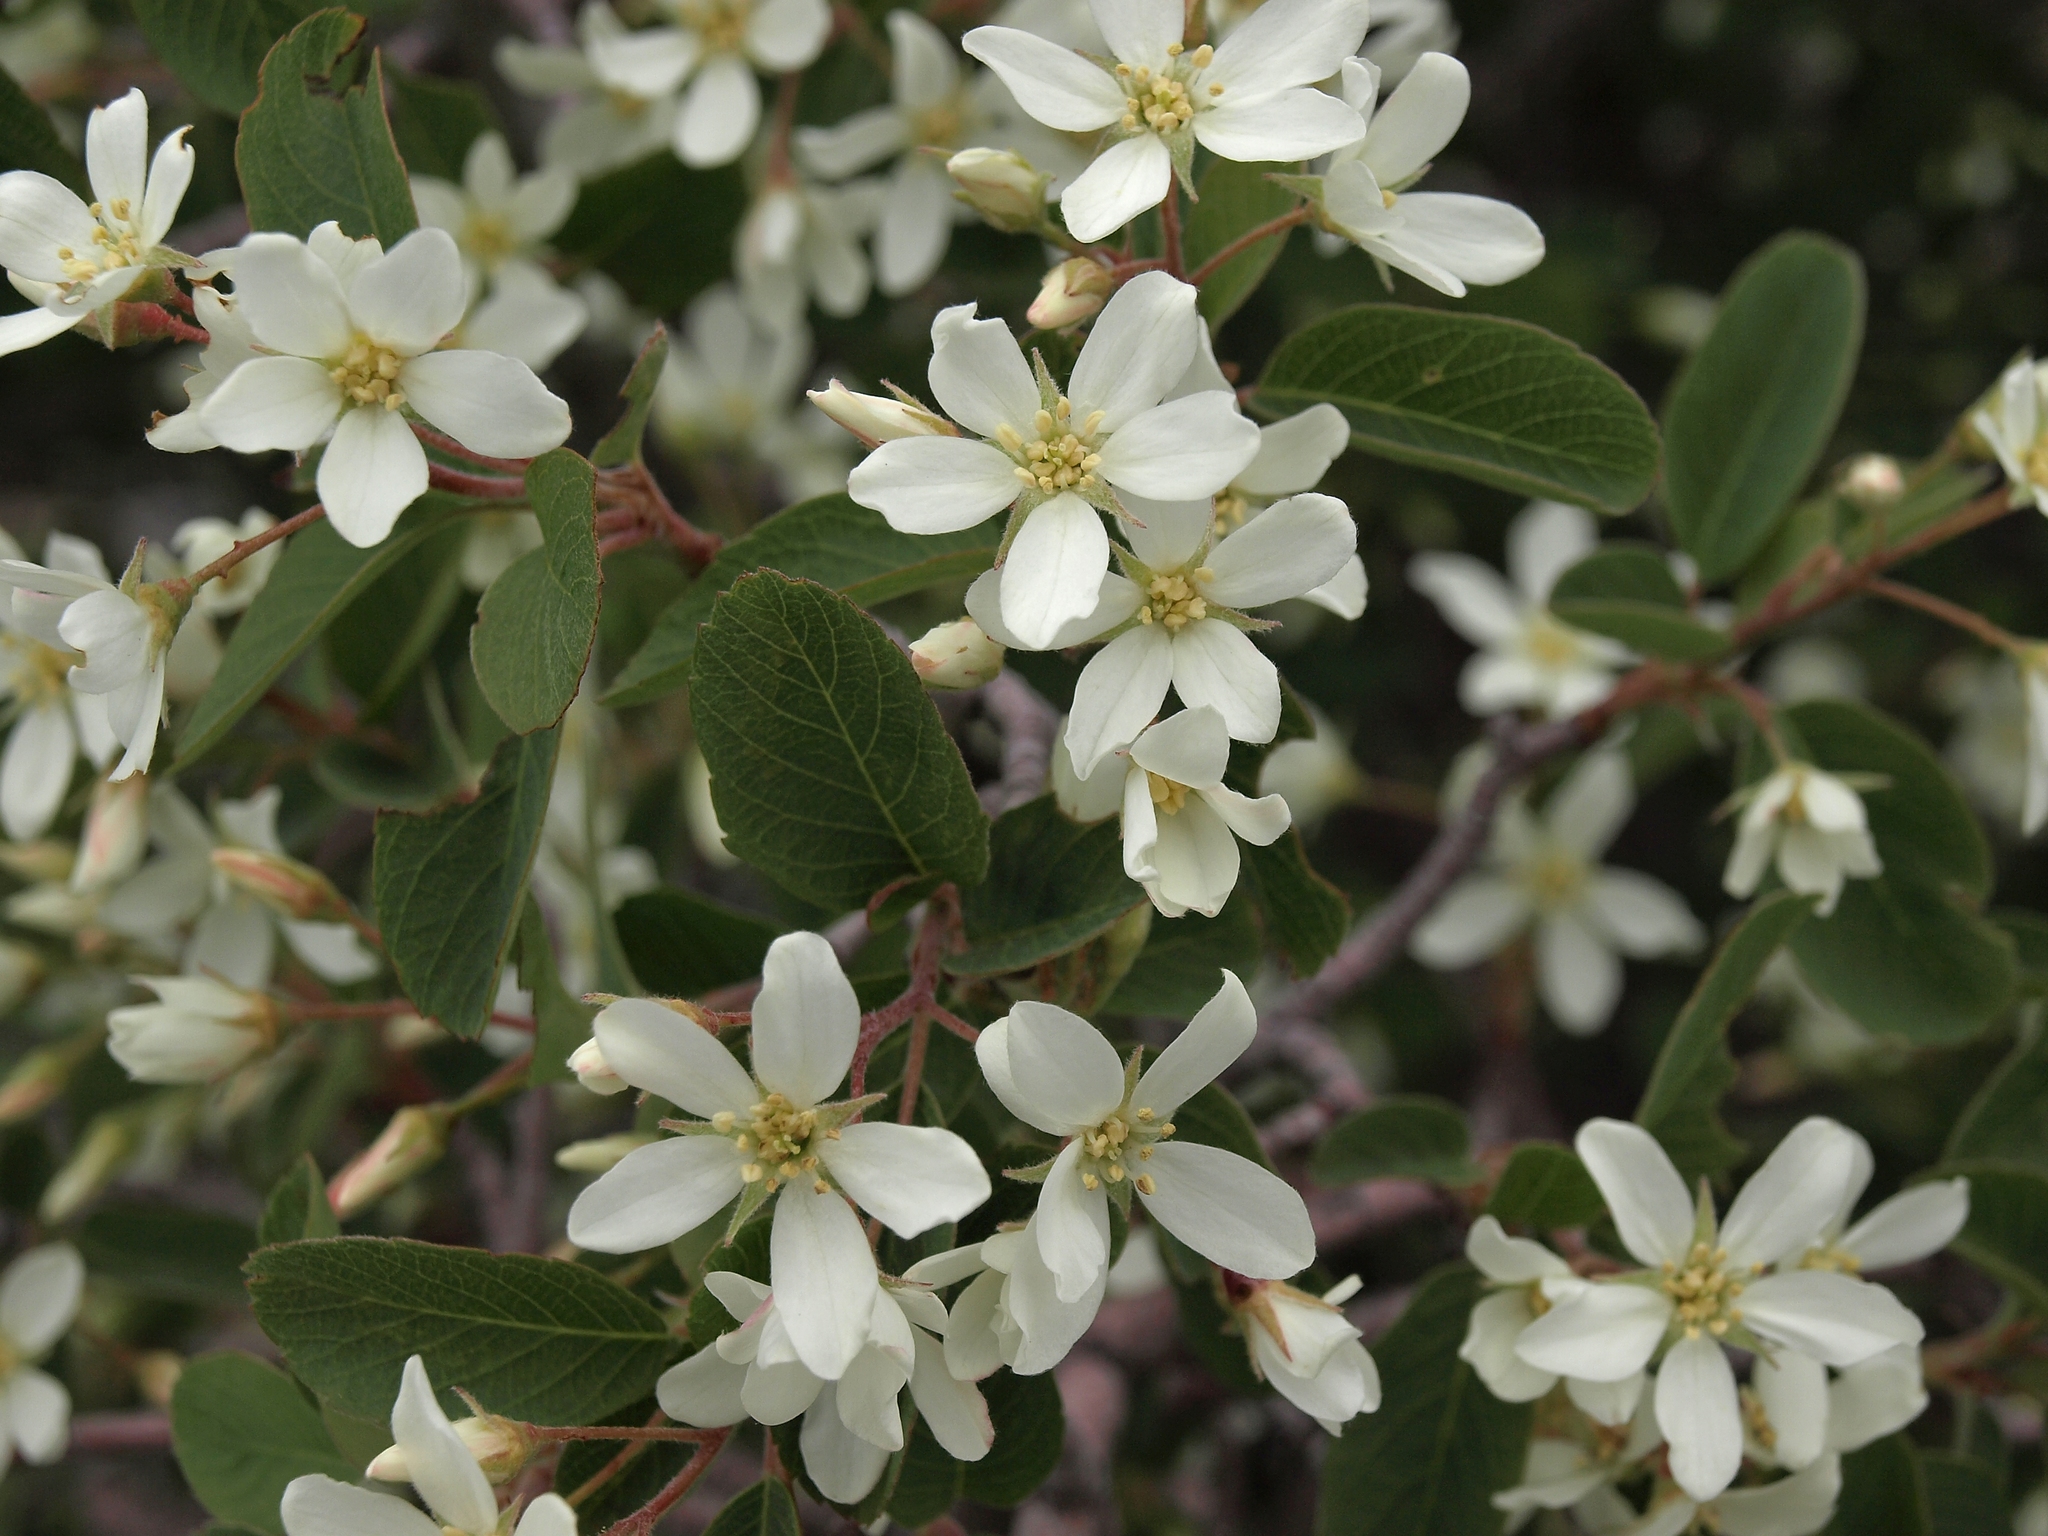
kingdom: Plantae
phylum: Tracheophyta
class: Magnoliopsida
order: Rosales
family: Rosaceae
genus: Amelanchier
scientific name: Amelanchier utahensis
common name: Utah serviceberry
